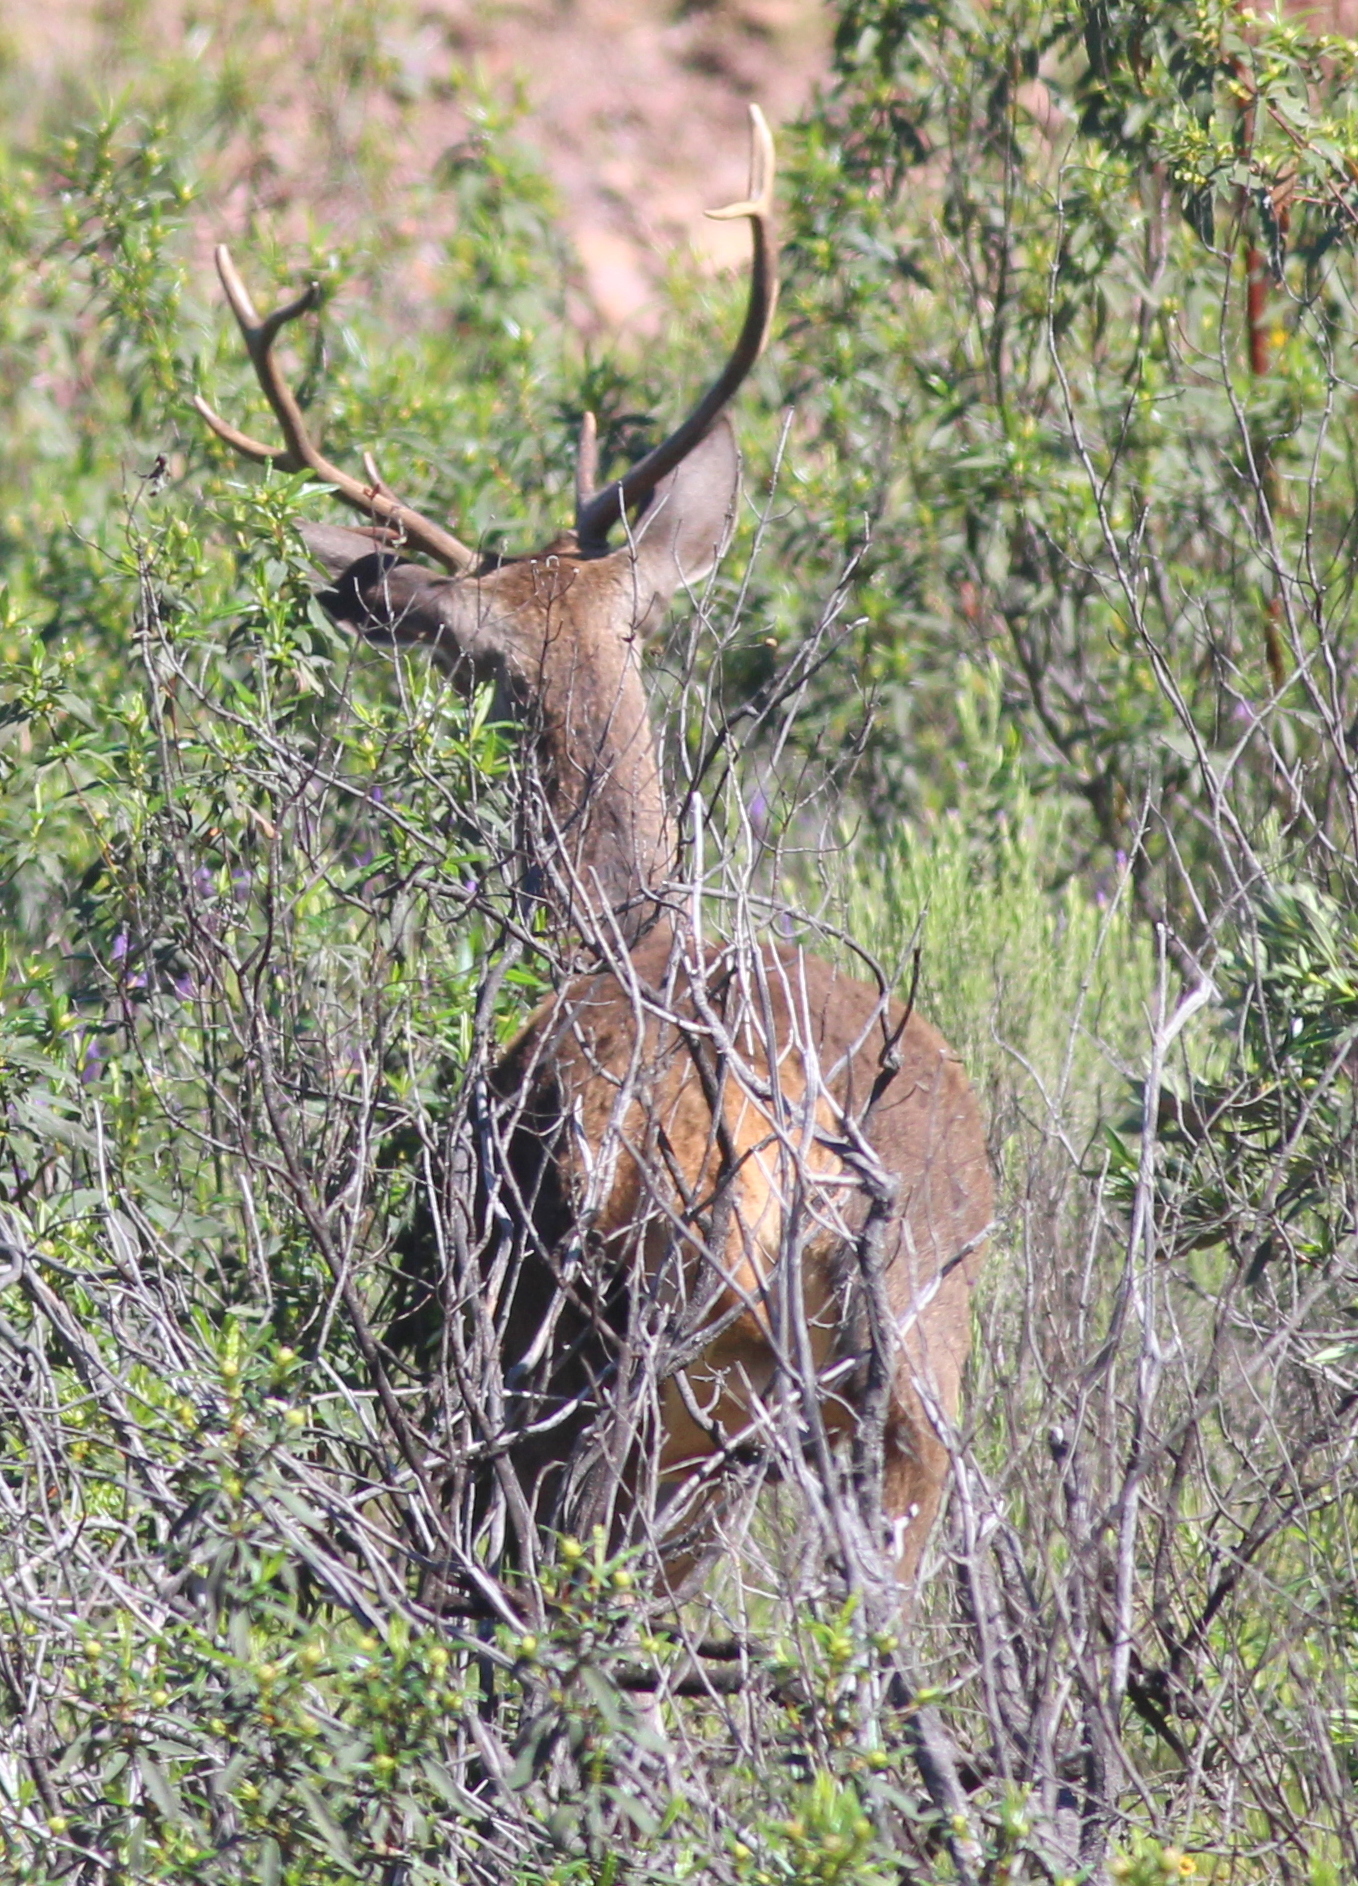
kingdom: Animalia
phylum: Chordata
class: Mammalia
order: Artiodactyla
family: Cervidae
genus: Cervus
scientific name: Cervus elaphus
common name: Red deer
